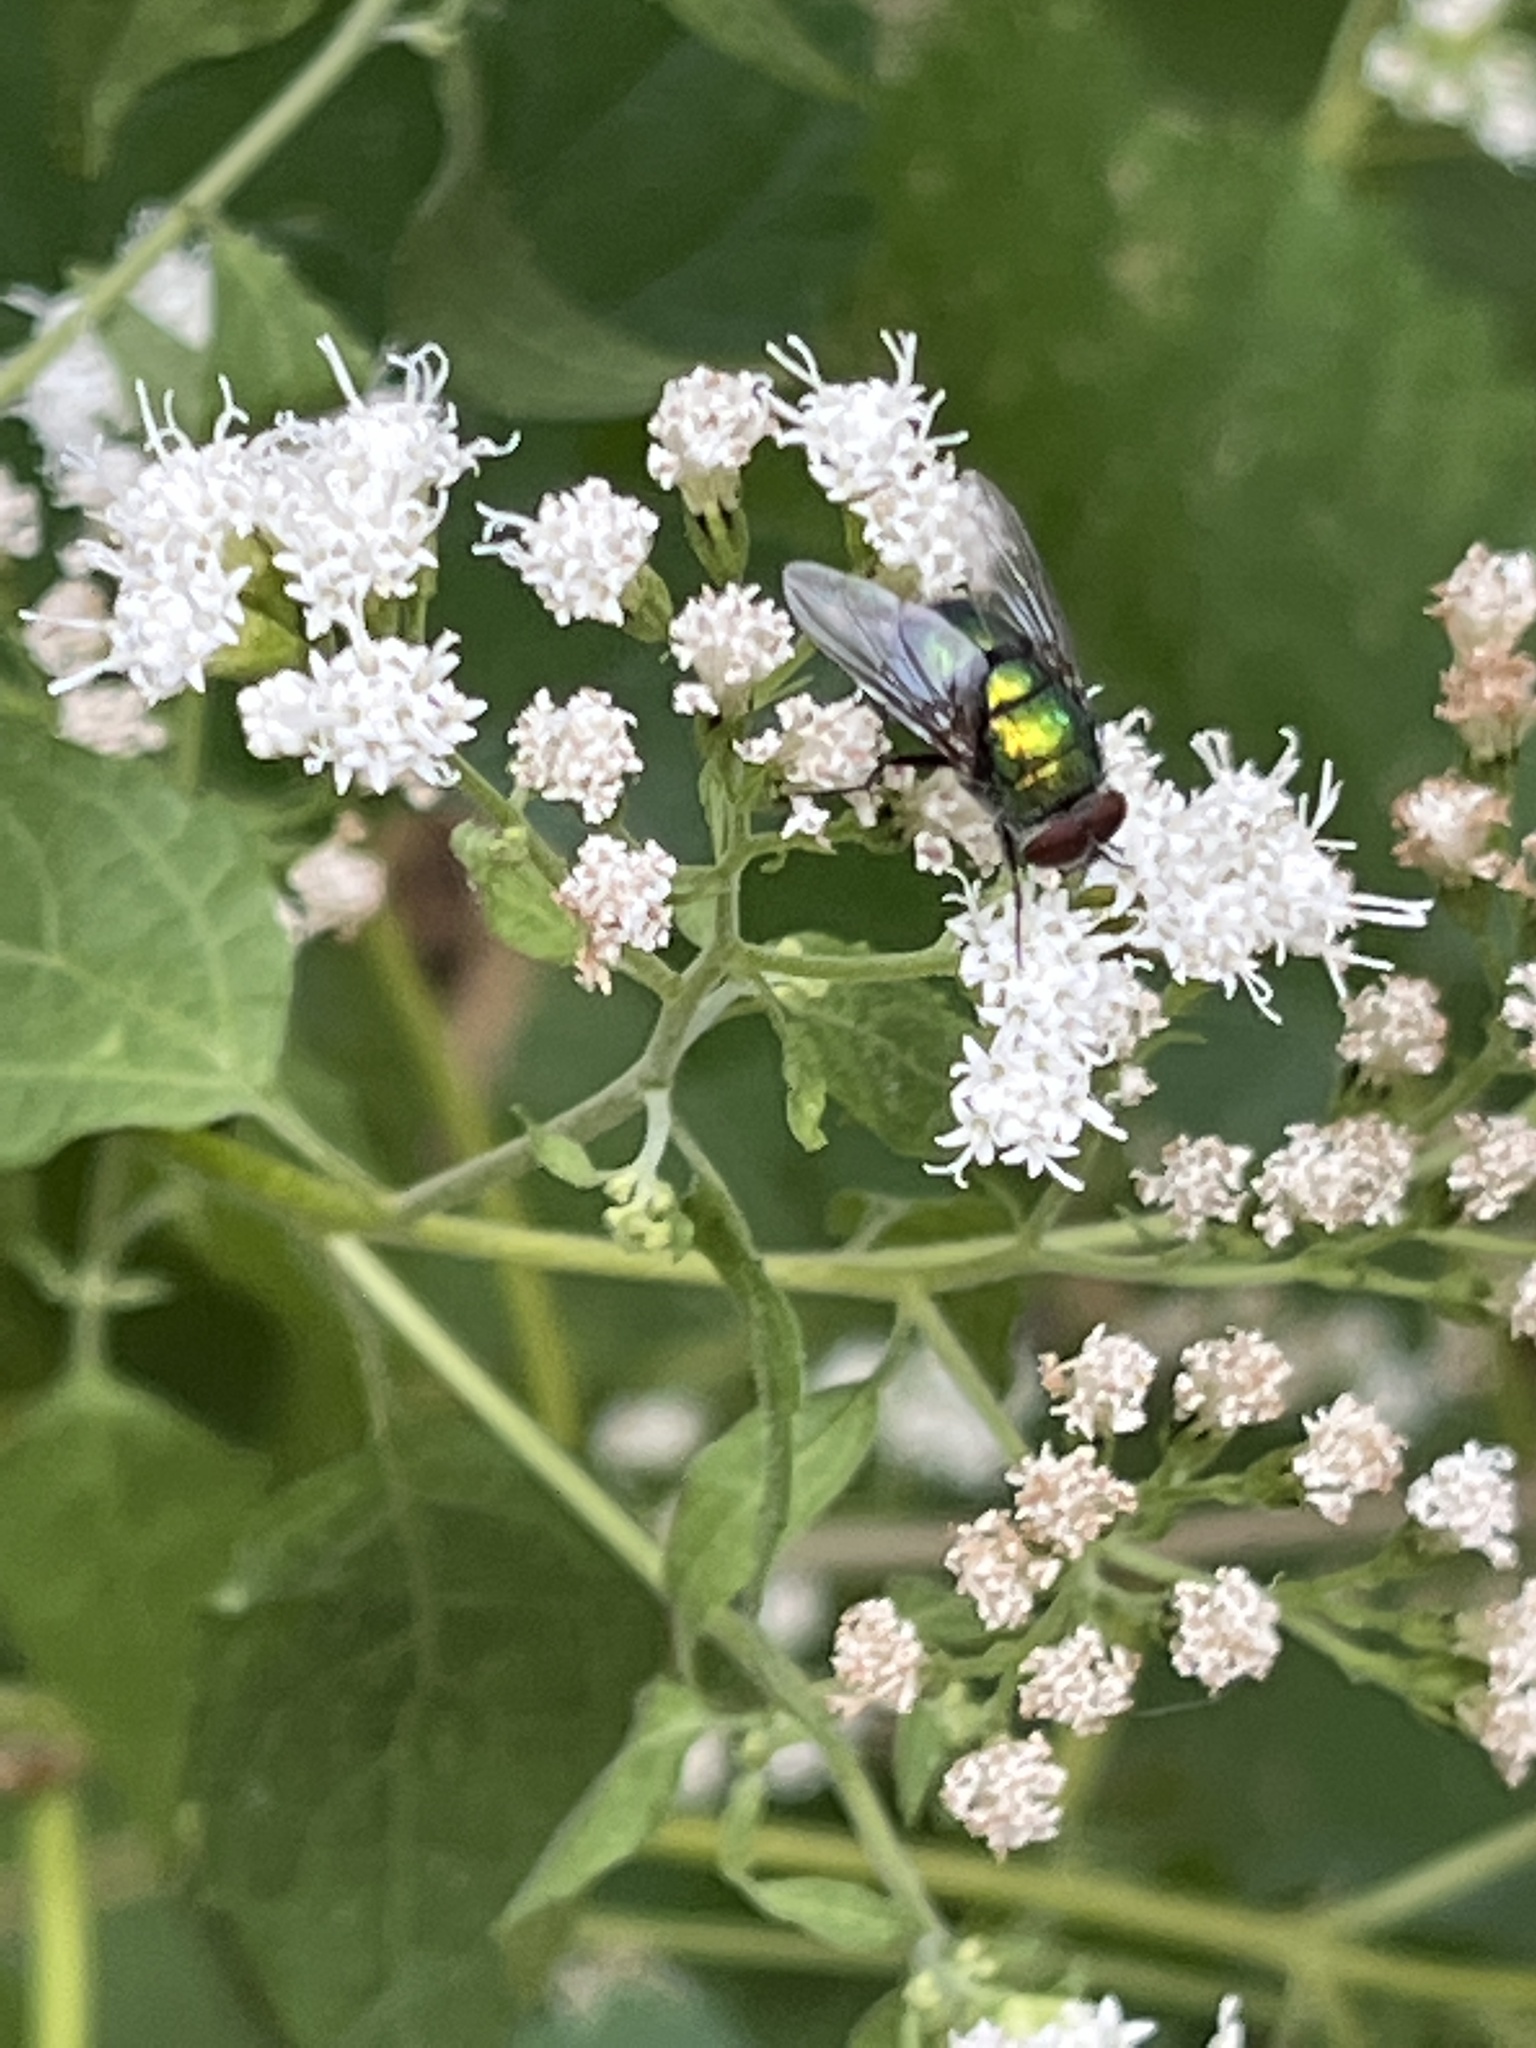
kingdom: Animalia
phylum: Arthropoda
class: Insecta
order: Diptera
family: Calliphoridae
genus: Lucilia
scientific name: Lucilia
